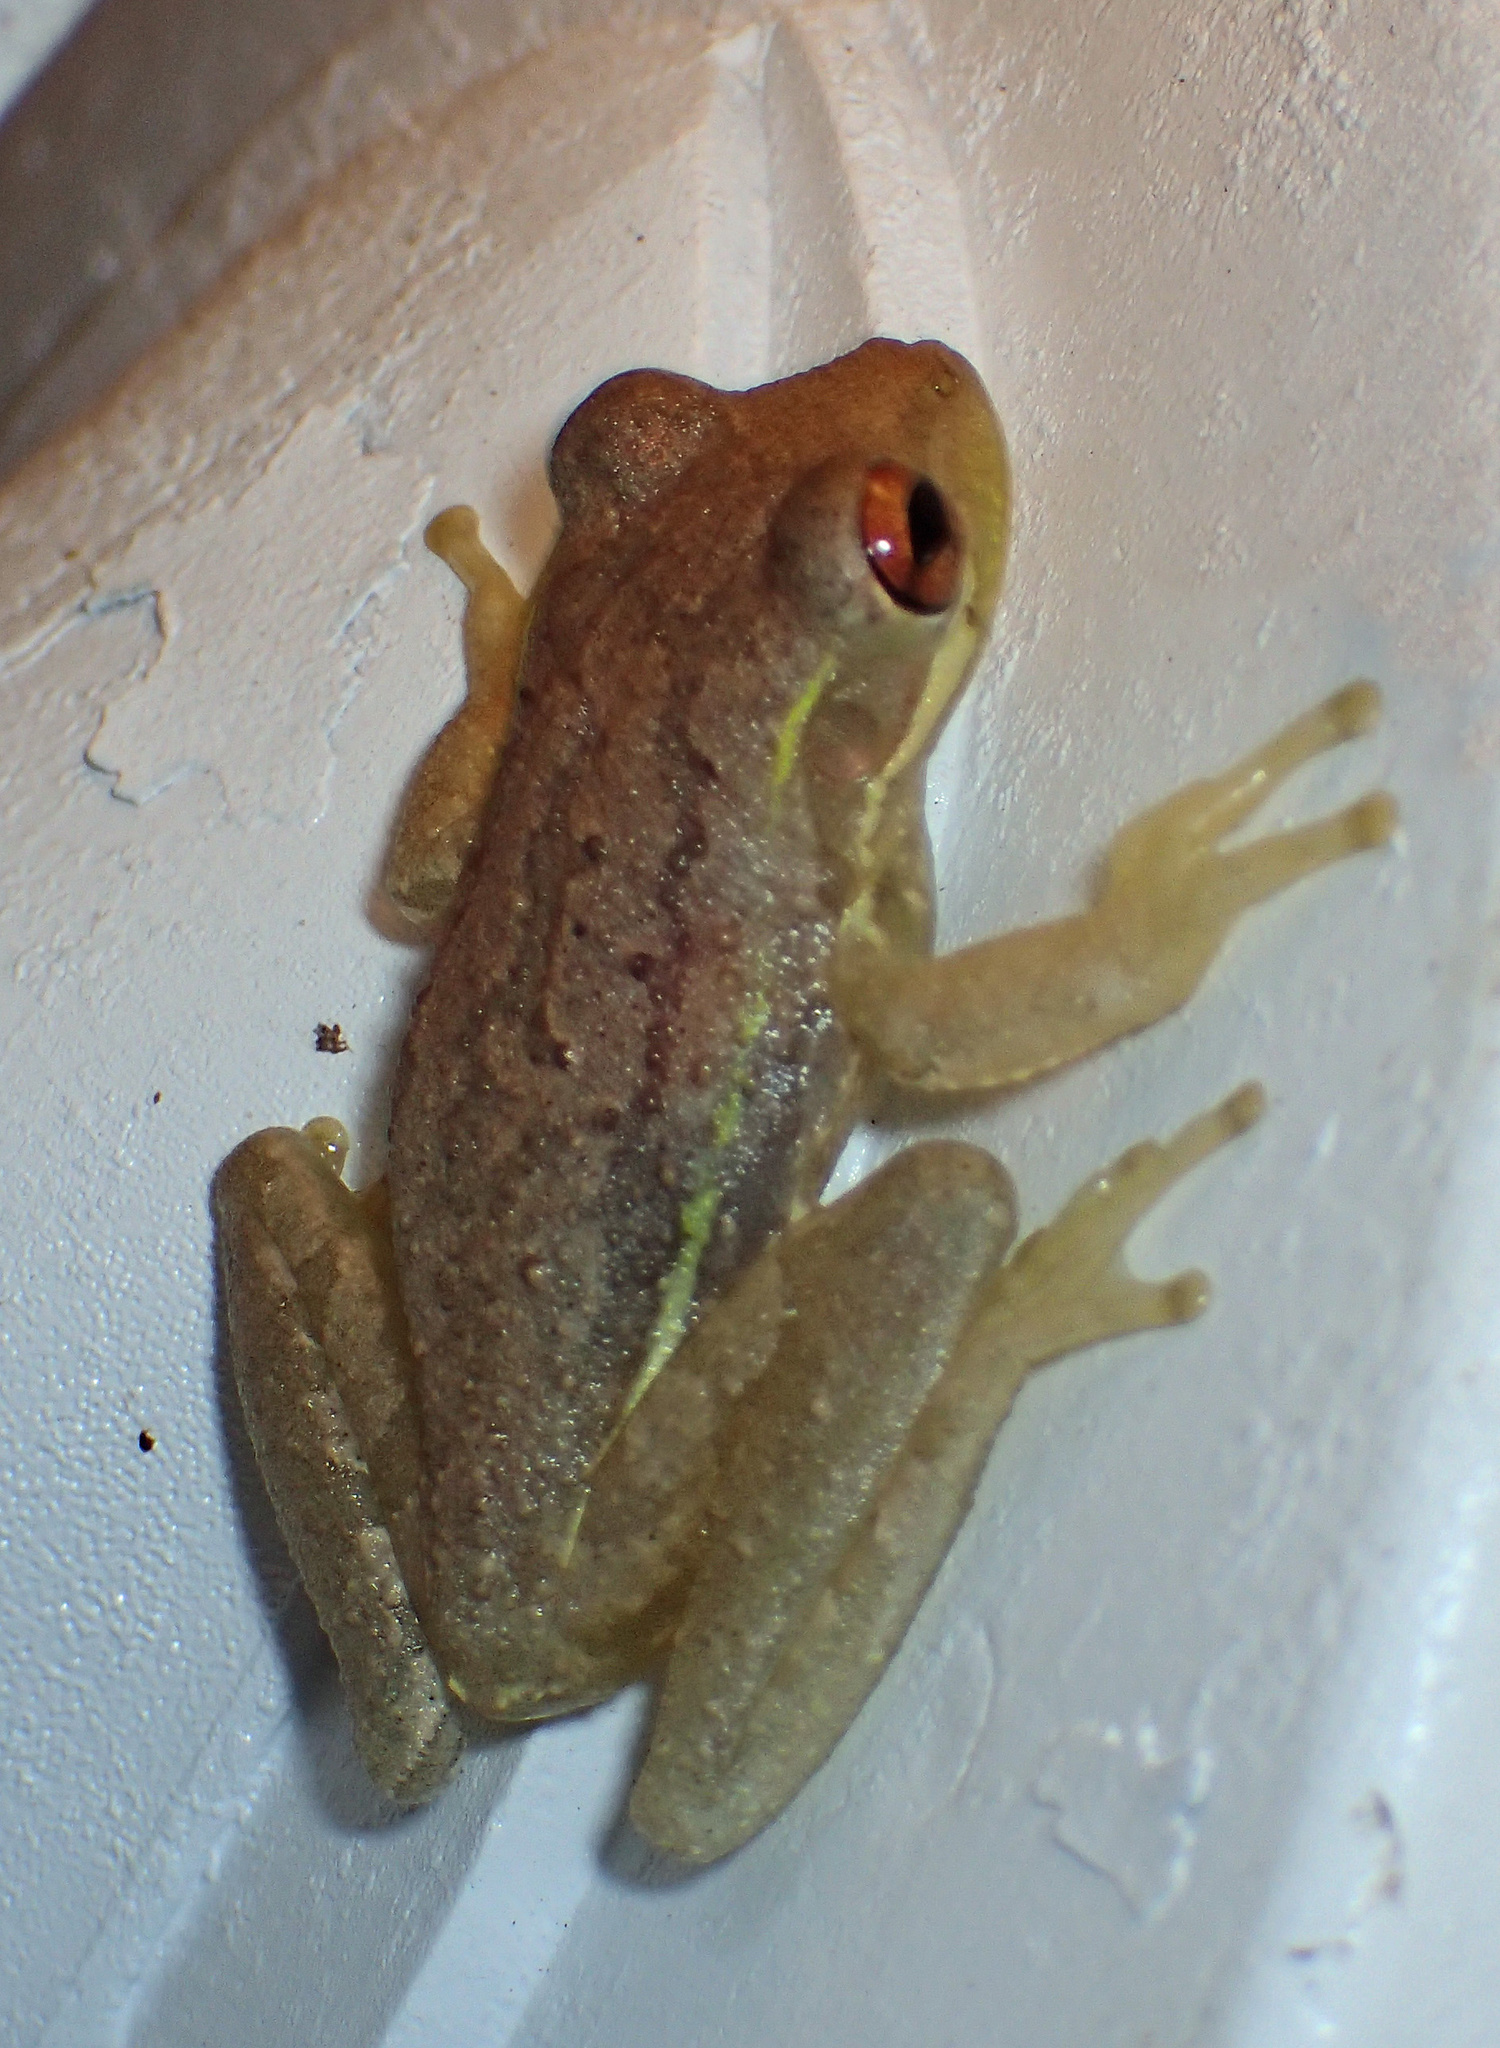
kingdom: Animalia
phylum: Chordata
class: Amphibia
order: Anura
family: Hylidae
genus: Osteopilus
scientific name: Osteopilus septentrionalis
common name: Cuban treefrog
